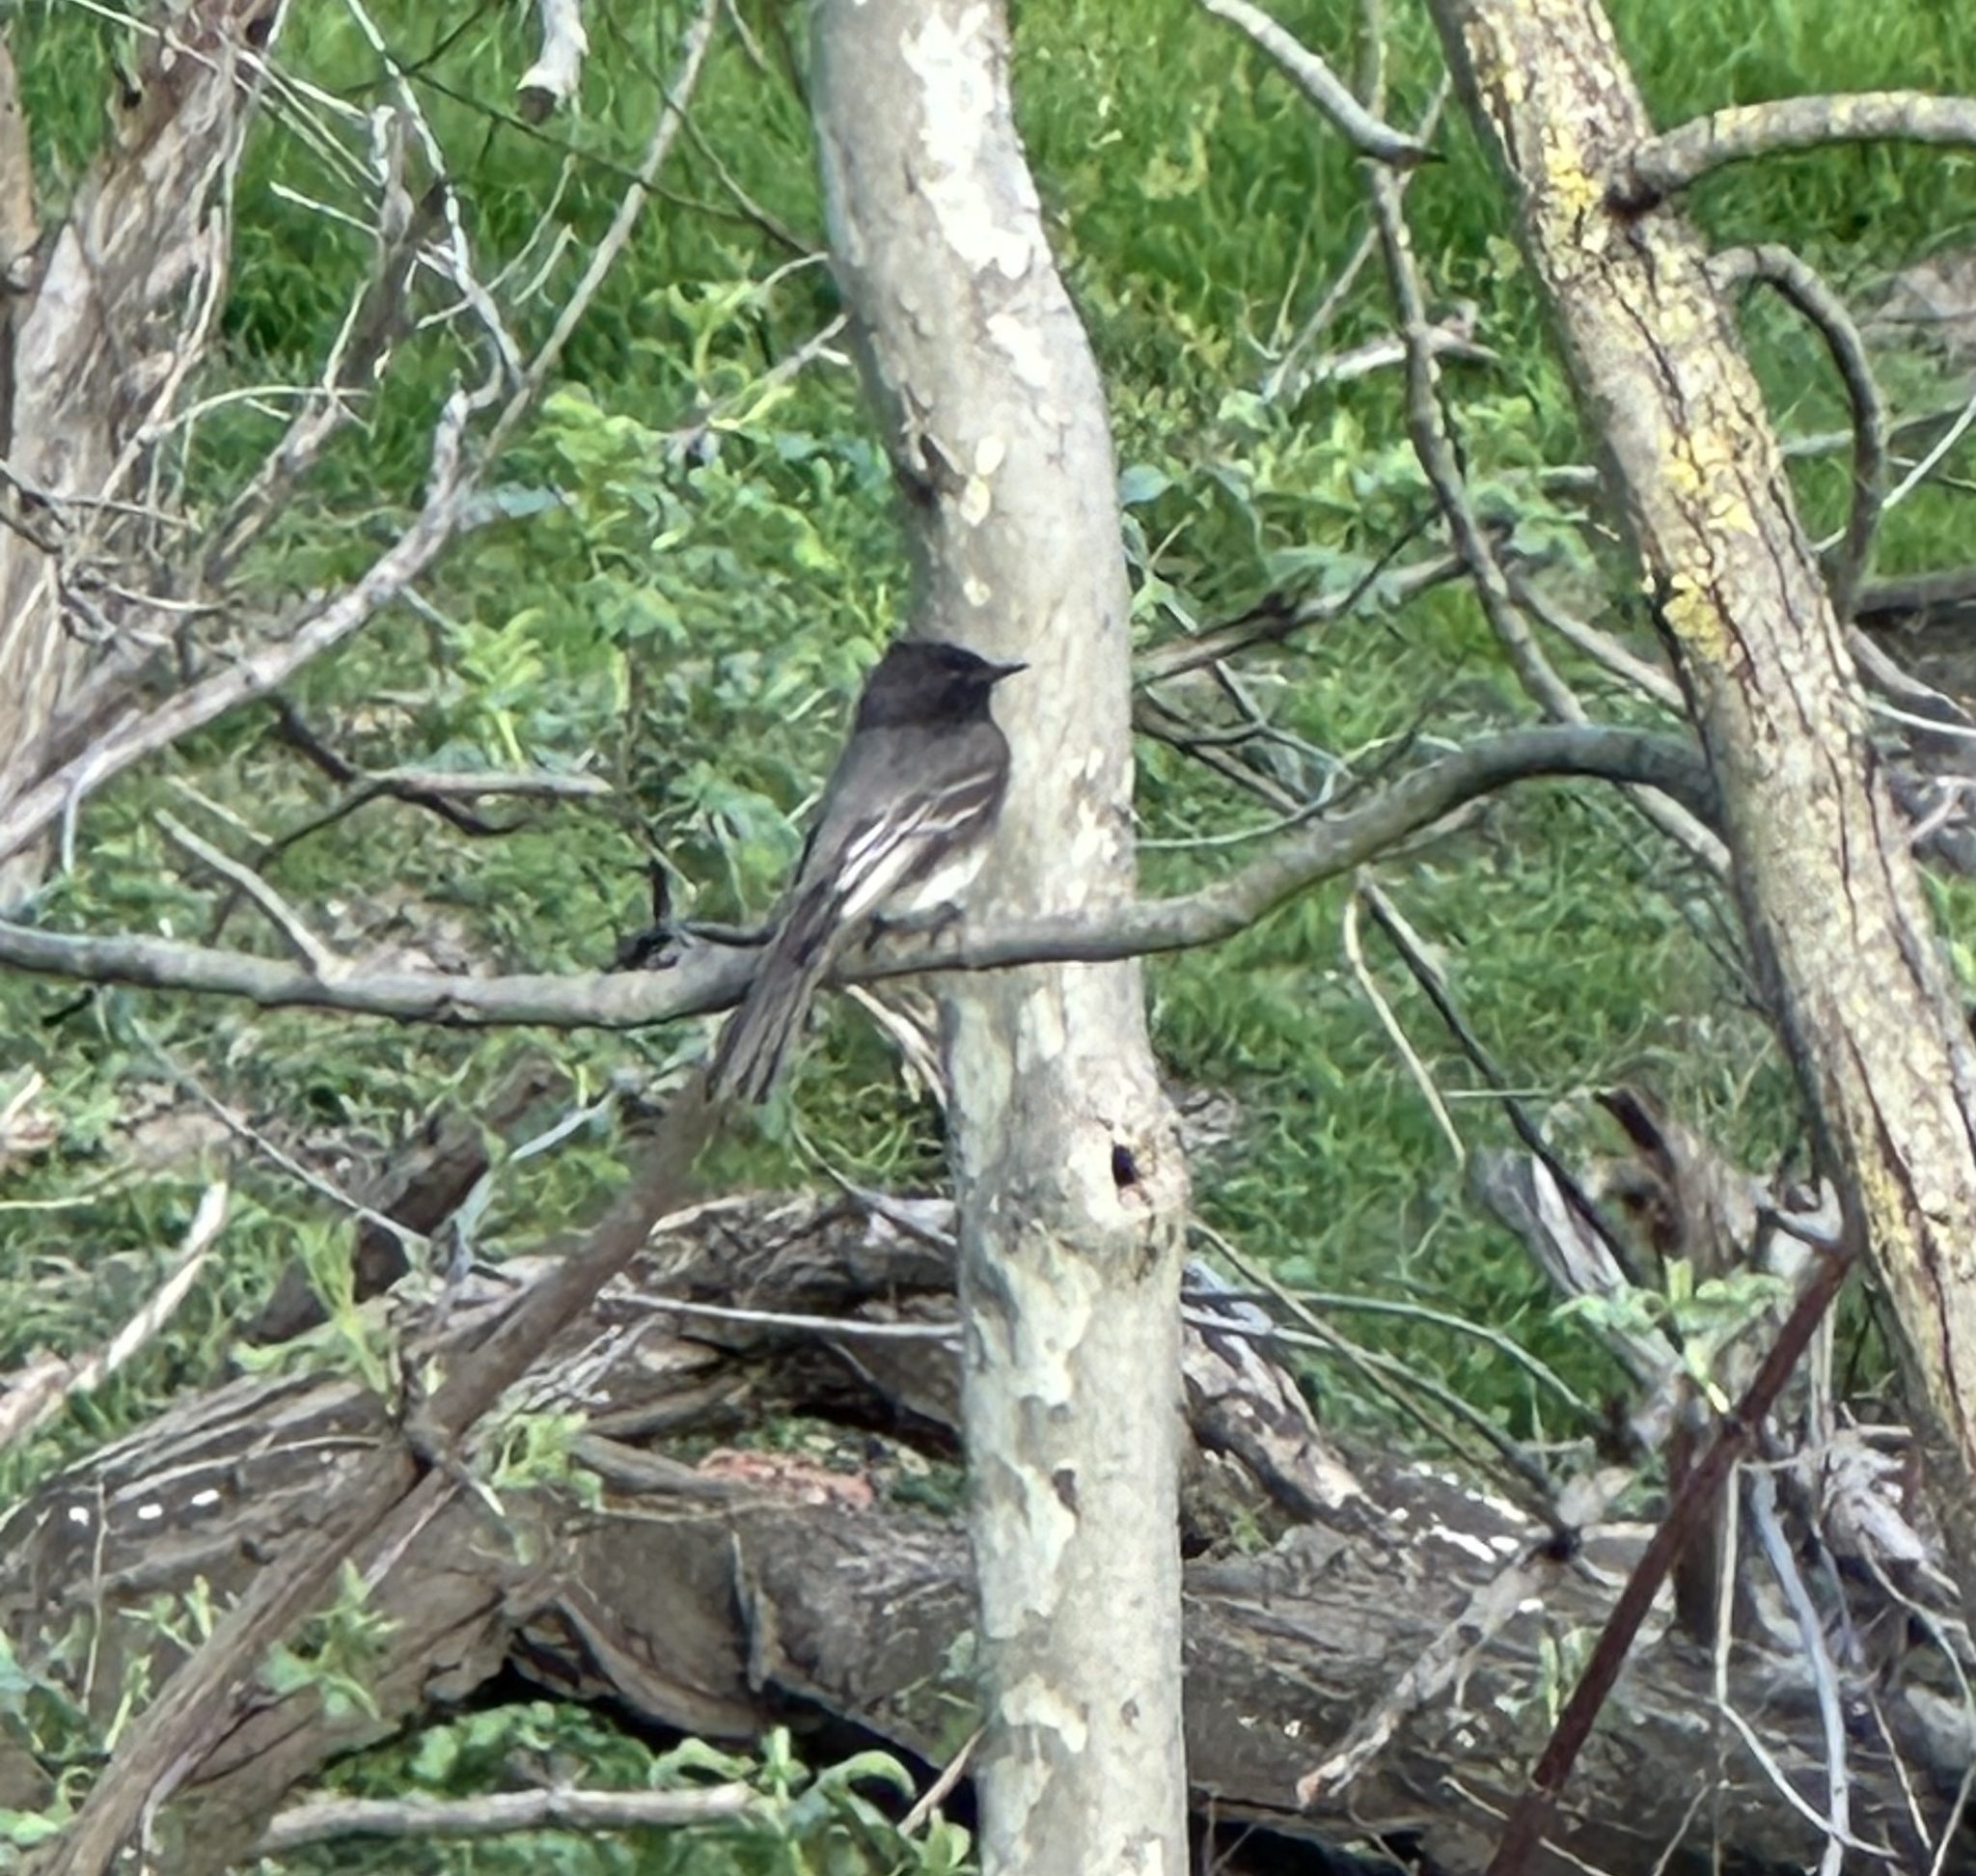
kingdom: Animalia
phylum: Chordata
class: Aves
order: Passeriformes
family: Tyrannidae
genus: Sayornis
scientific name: Sayornis nigricans
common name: Black phoebe
